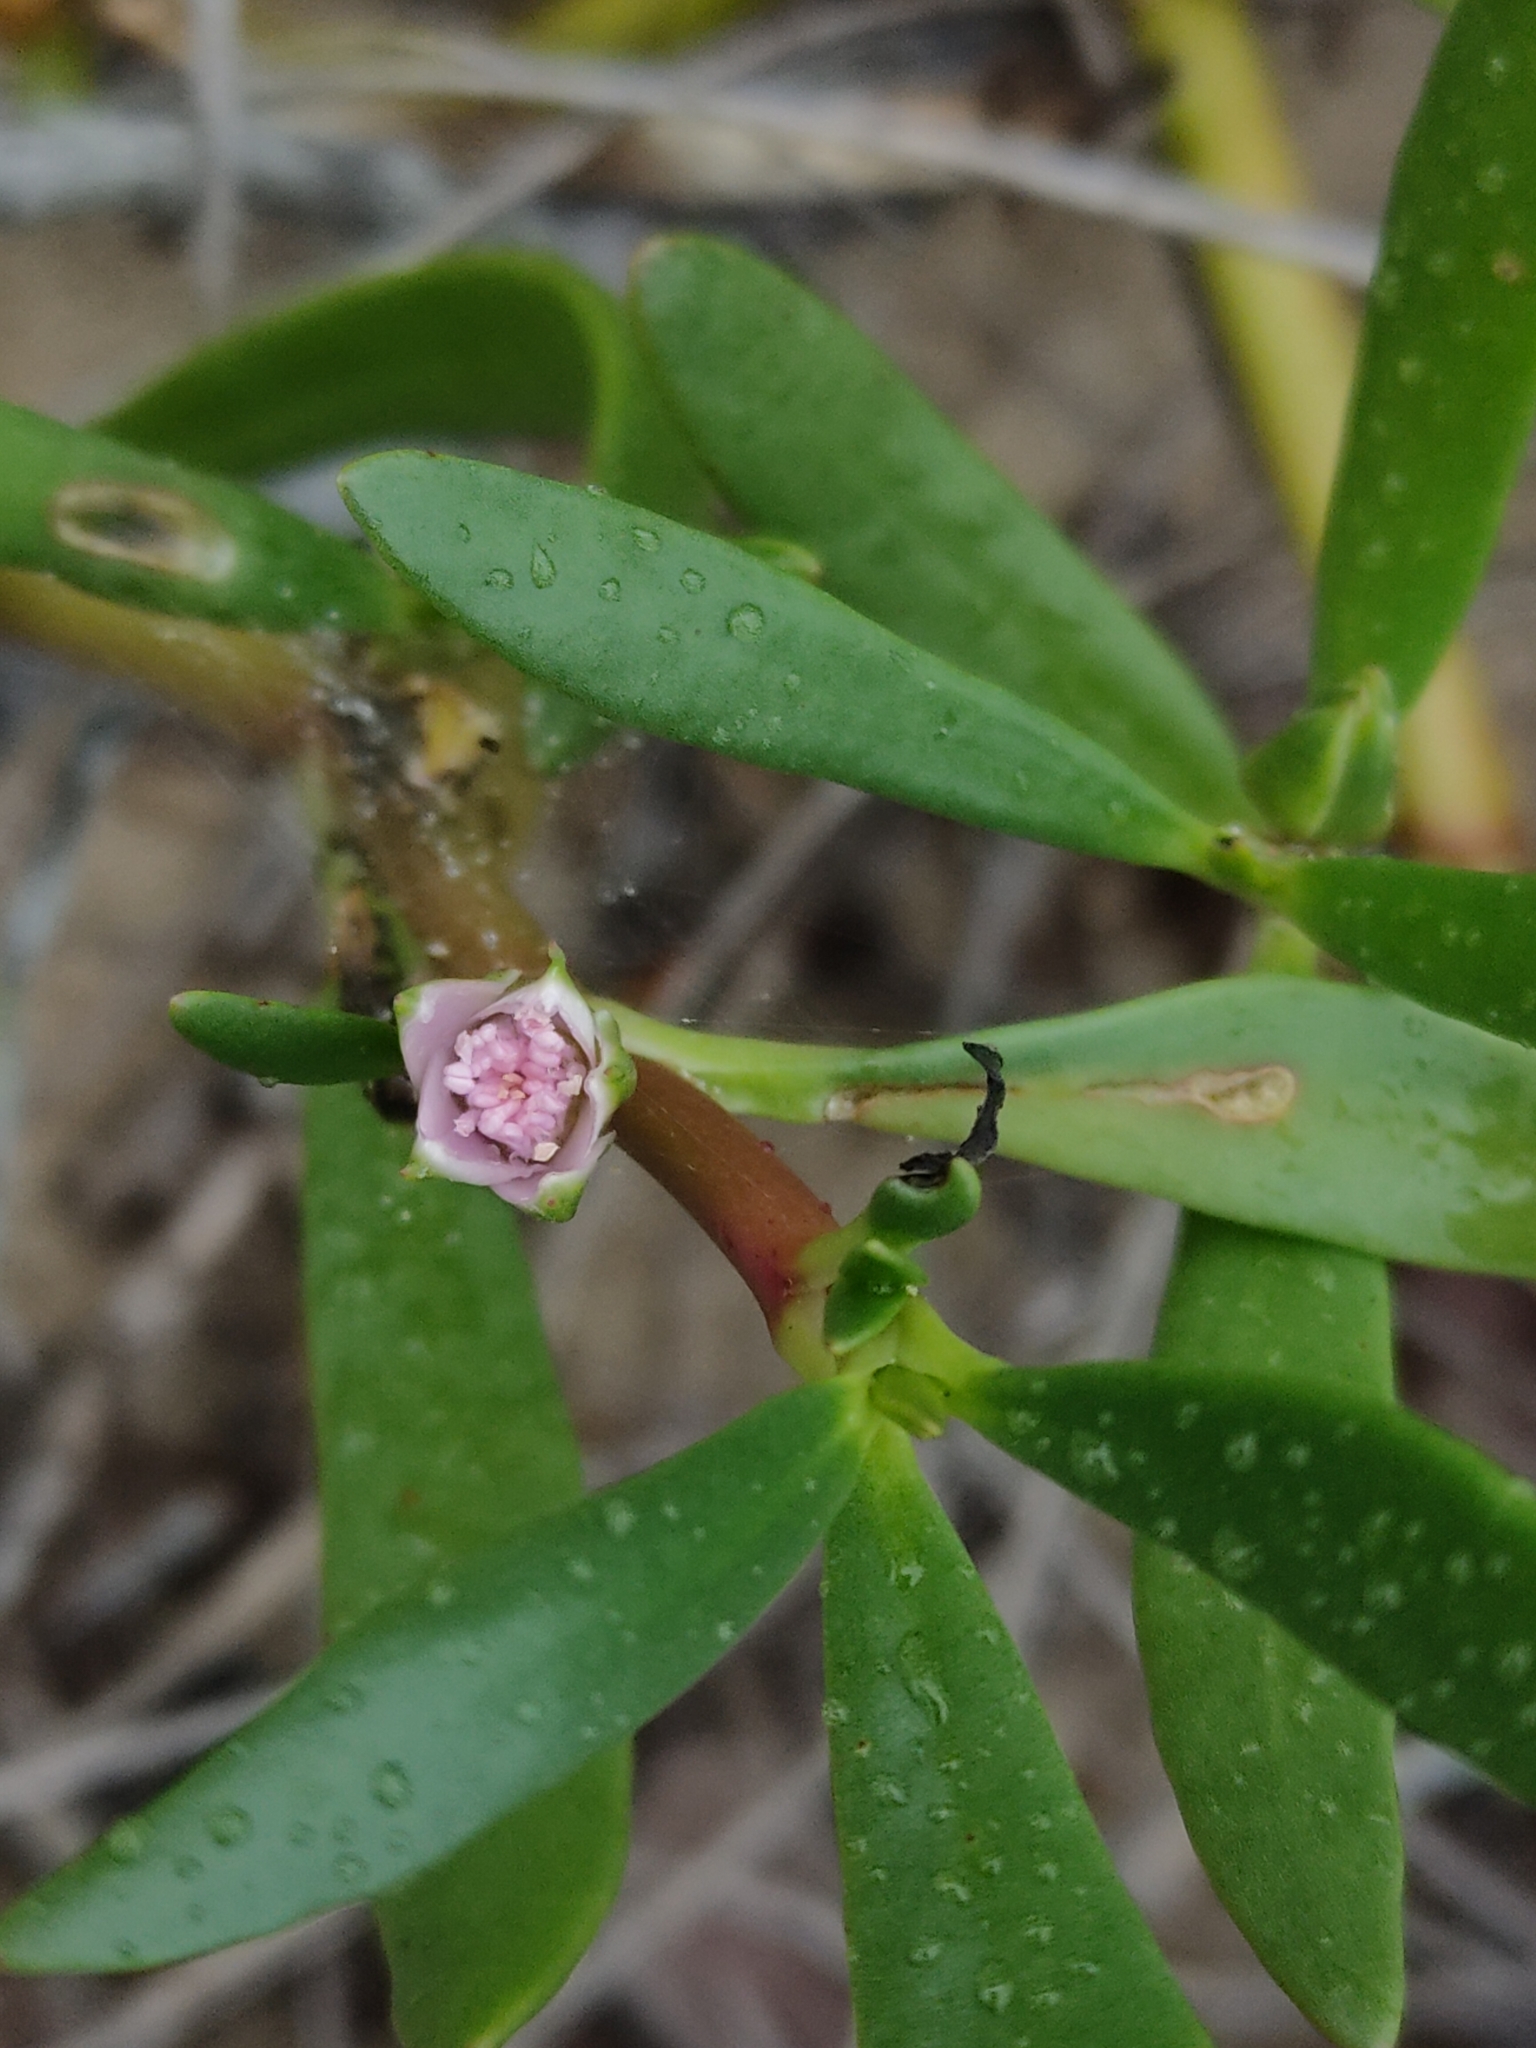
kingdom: Plantae
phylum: Tracheophyta
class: Magnoliopsida
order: Caryophyllales
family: Aizoaceae
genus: Sesuvium
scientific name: Sesuvium portulacastrum
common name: Sea-purslane
